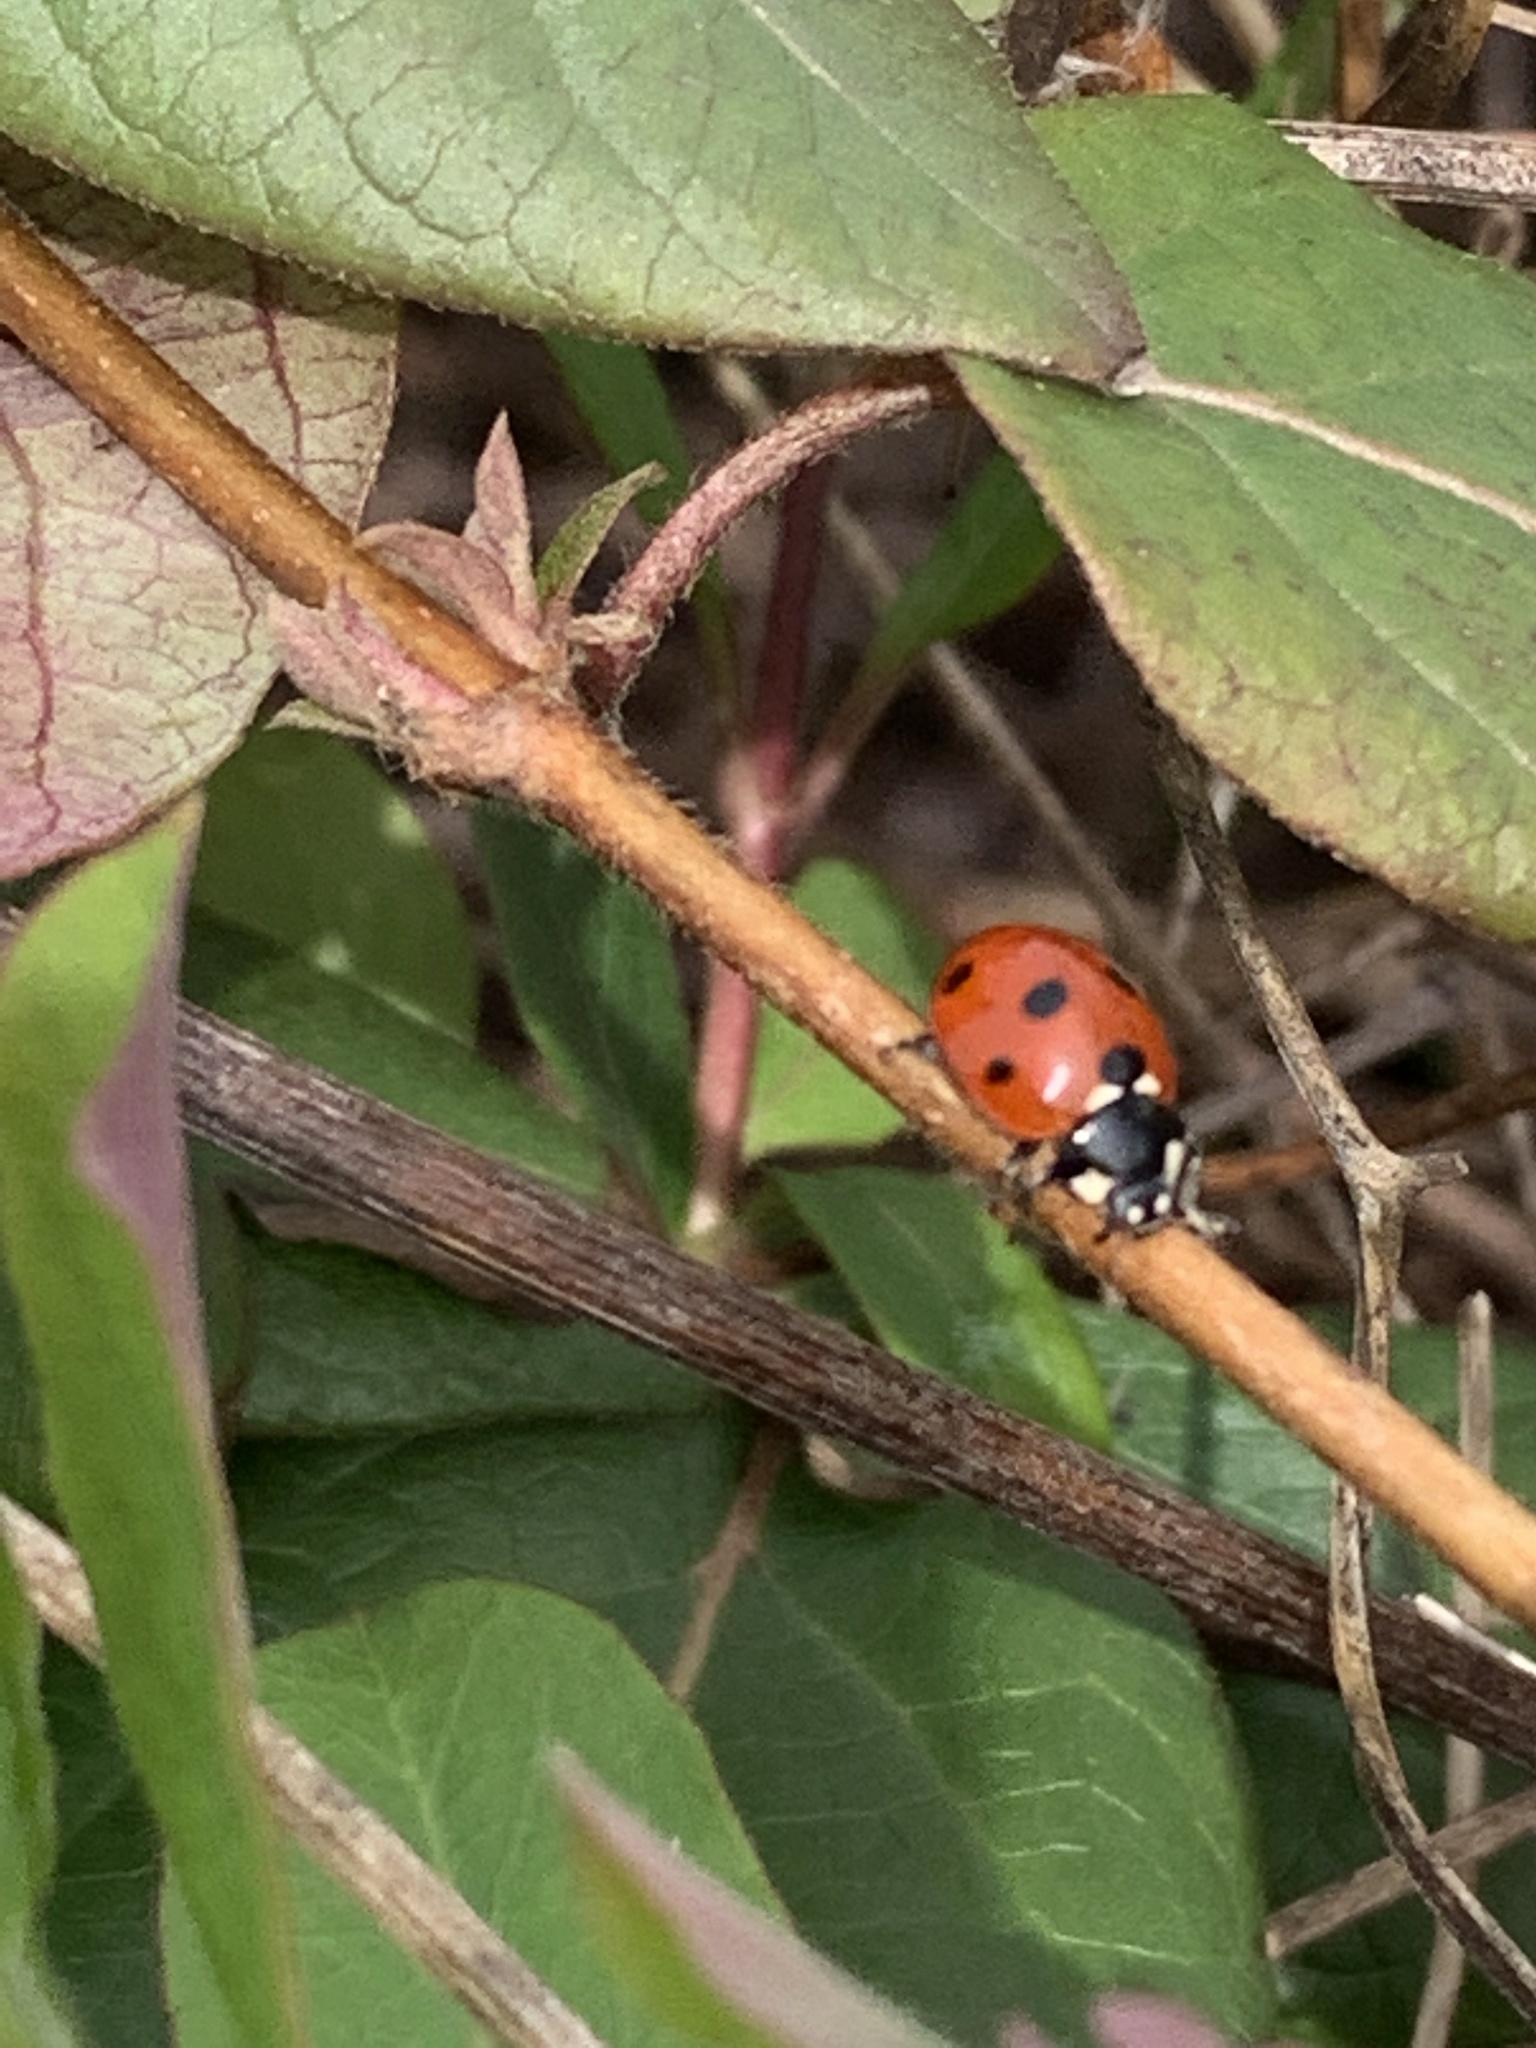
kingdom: Animalia
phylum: Arthropoda
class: Insecta
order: Coleoptera
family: Coccinellidae
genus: Coccinella
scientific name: Coccinella septempunctata
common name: Sevenspotted lady beetle
